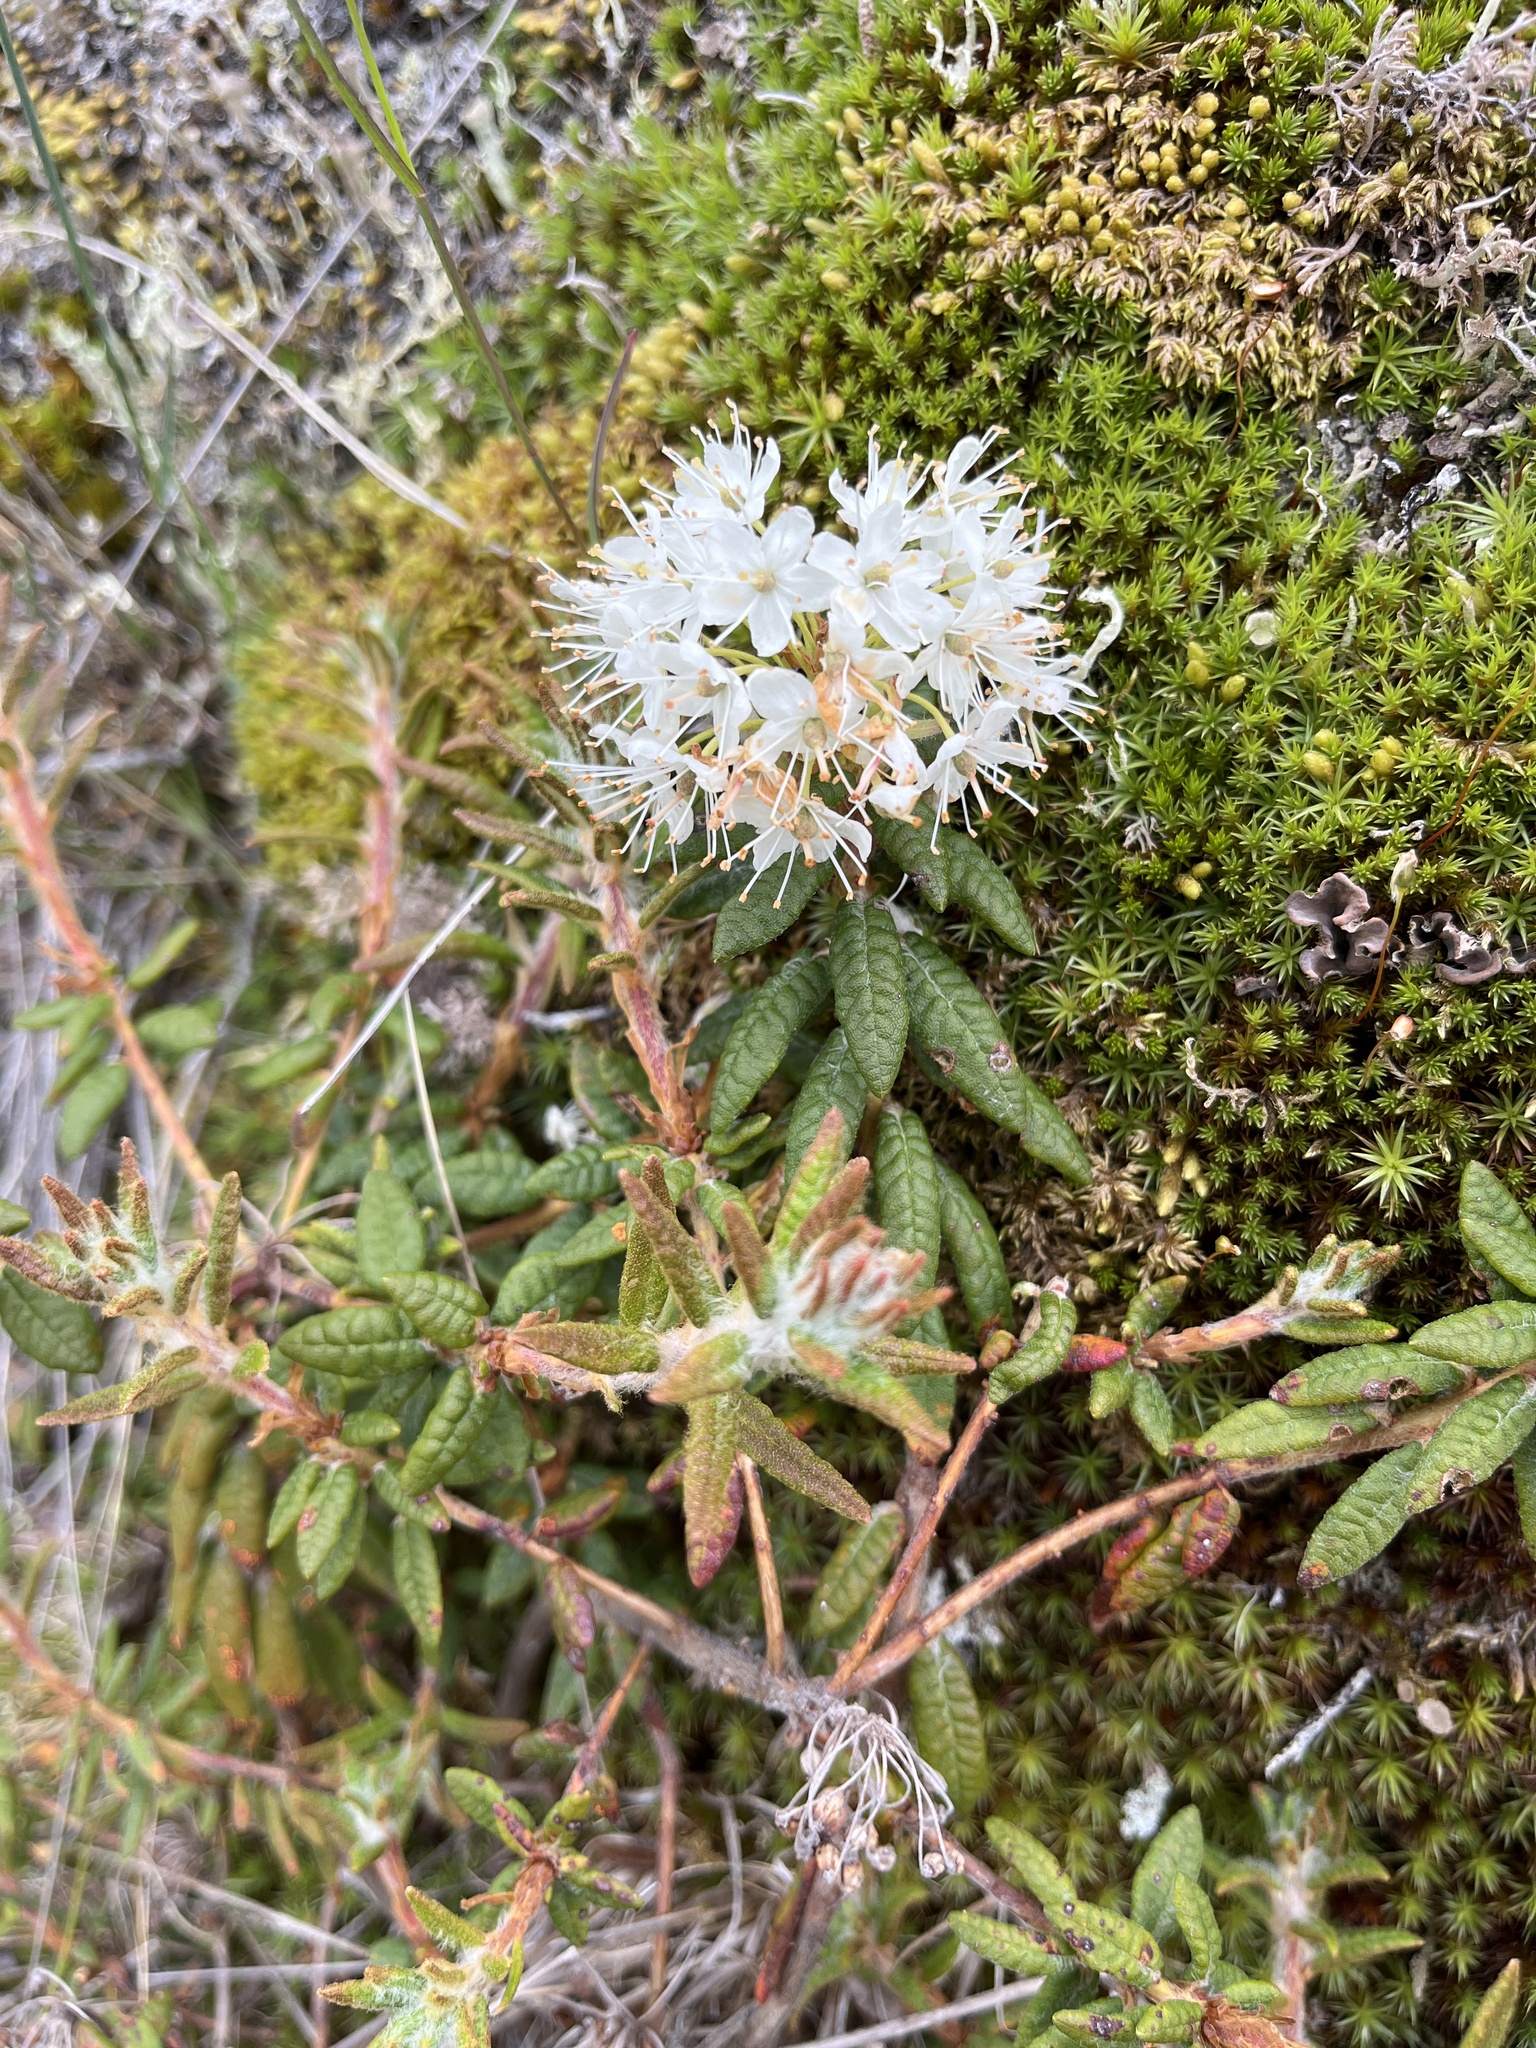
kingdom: Plantae
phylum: Tracheophyta
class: Magnoliopsida
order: Ericales
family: Ericaceae
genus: Rhododendron
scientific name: Rhododendron groenlandicum
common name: Bog labrador tea
